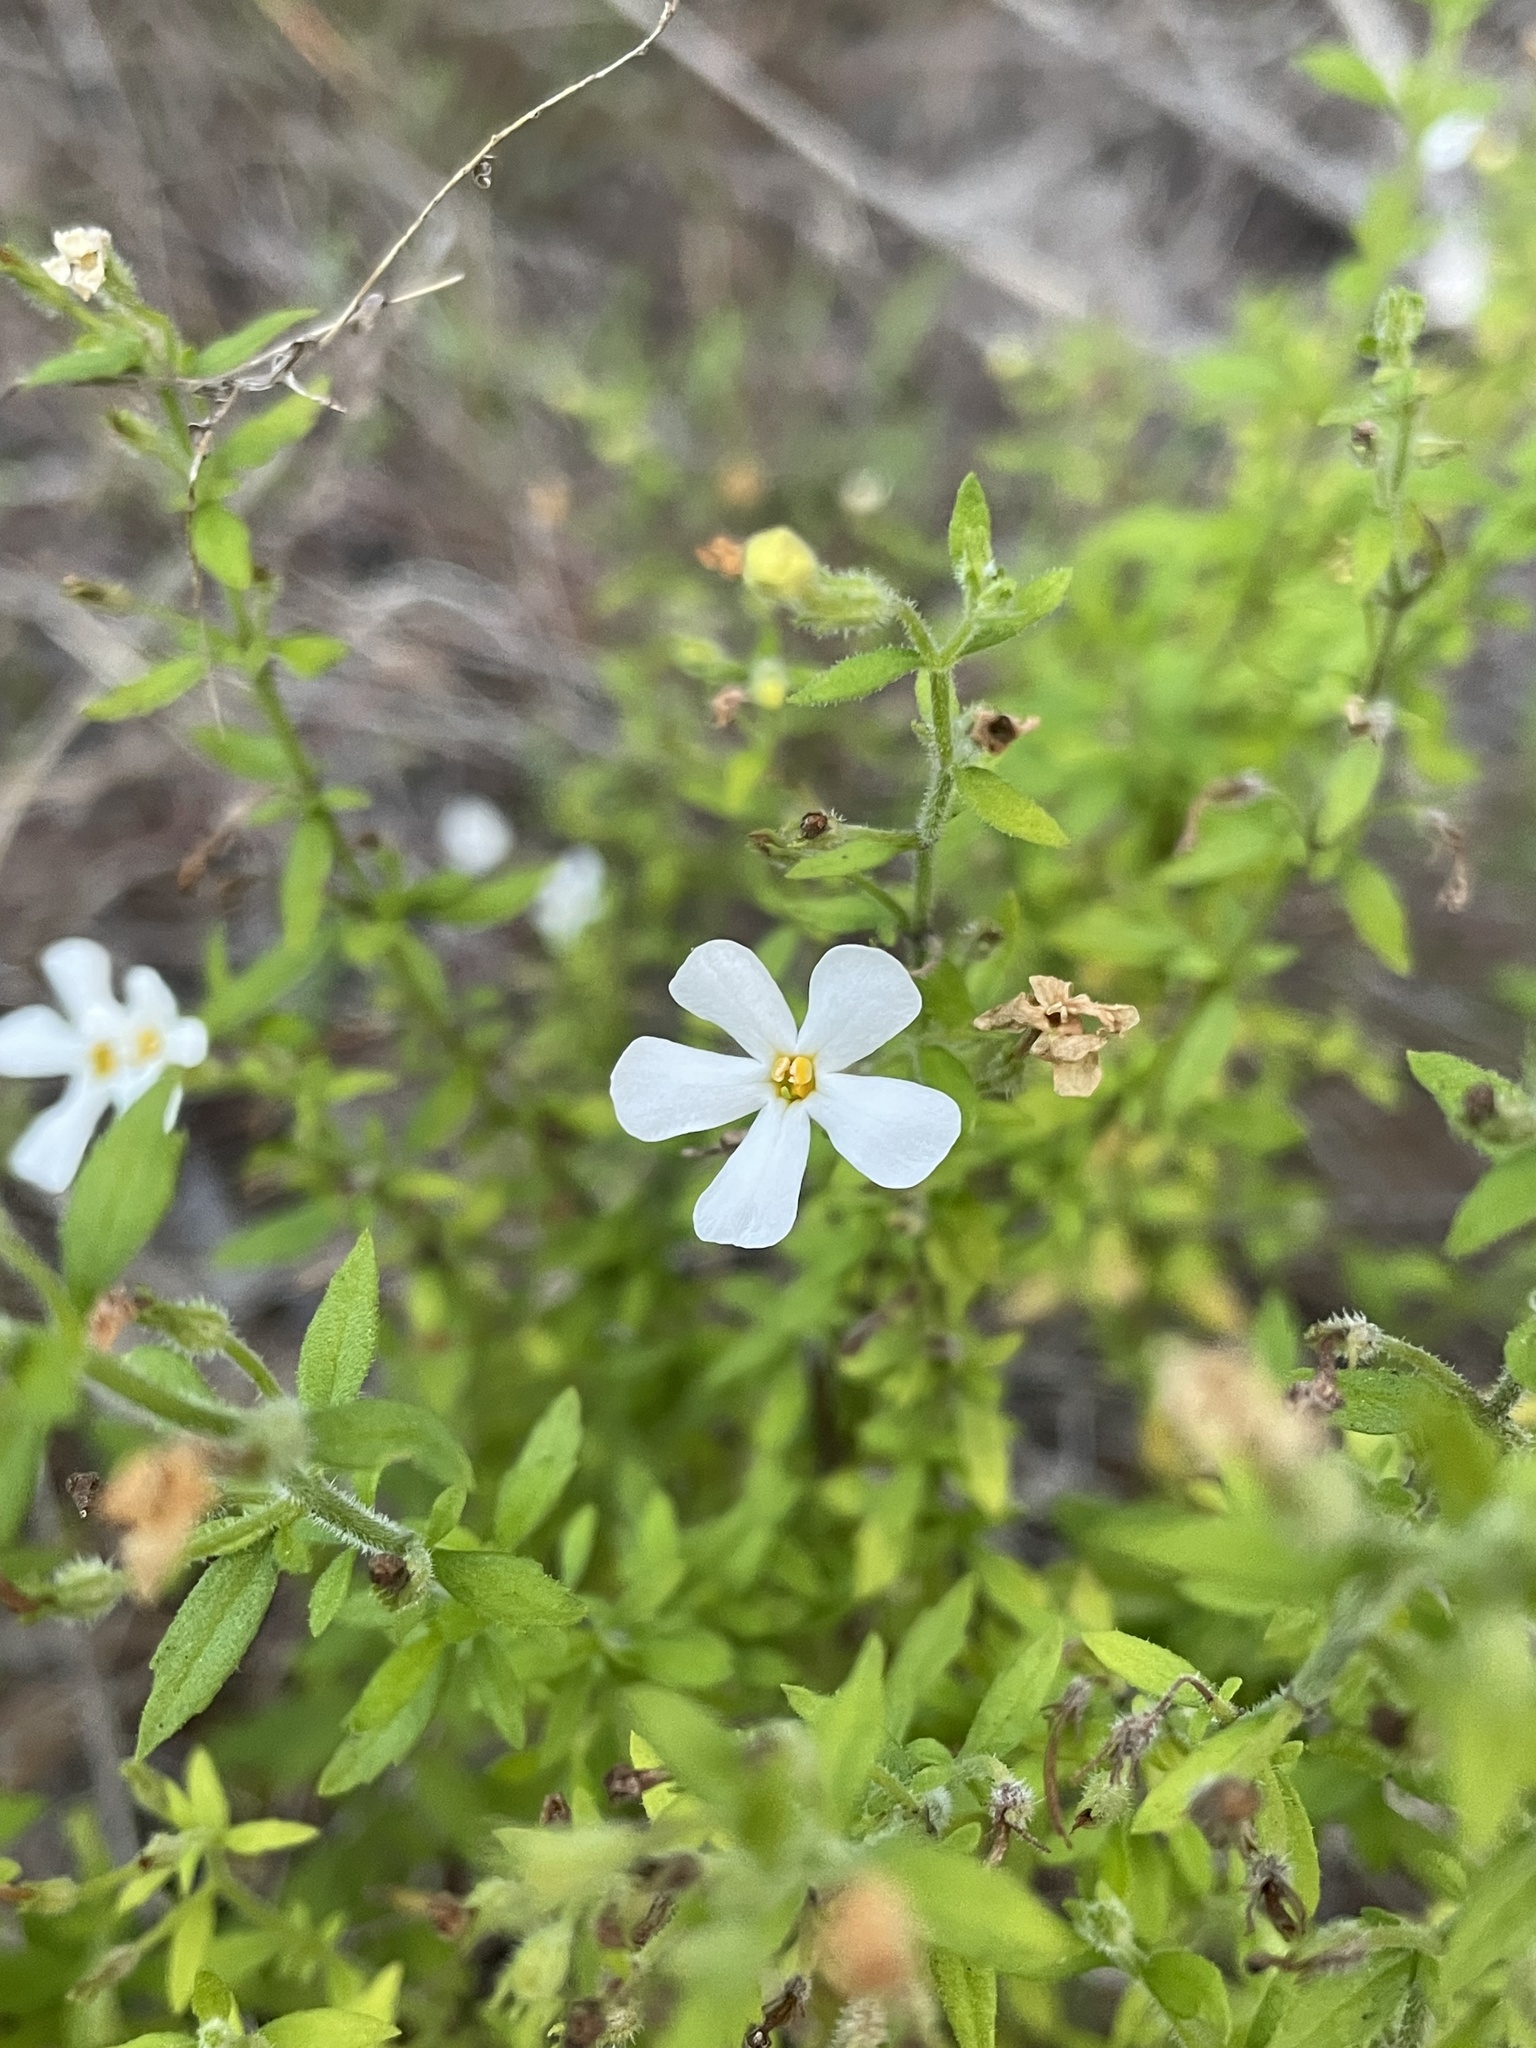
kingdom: Plantae
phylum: Tracheophyta
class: Magnoliopsida
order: Lamiales
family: Scrophulariaceae
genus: Chaenostoma
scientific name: Chaenostoma hispidum
